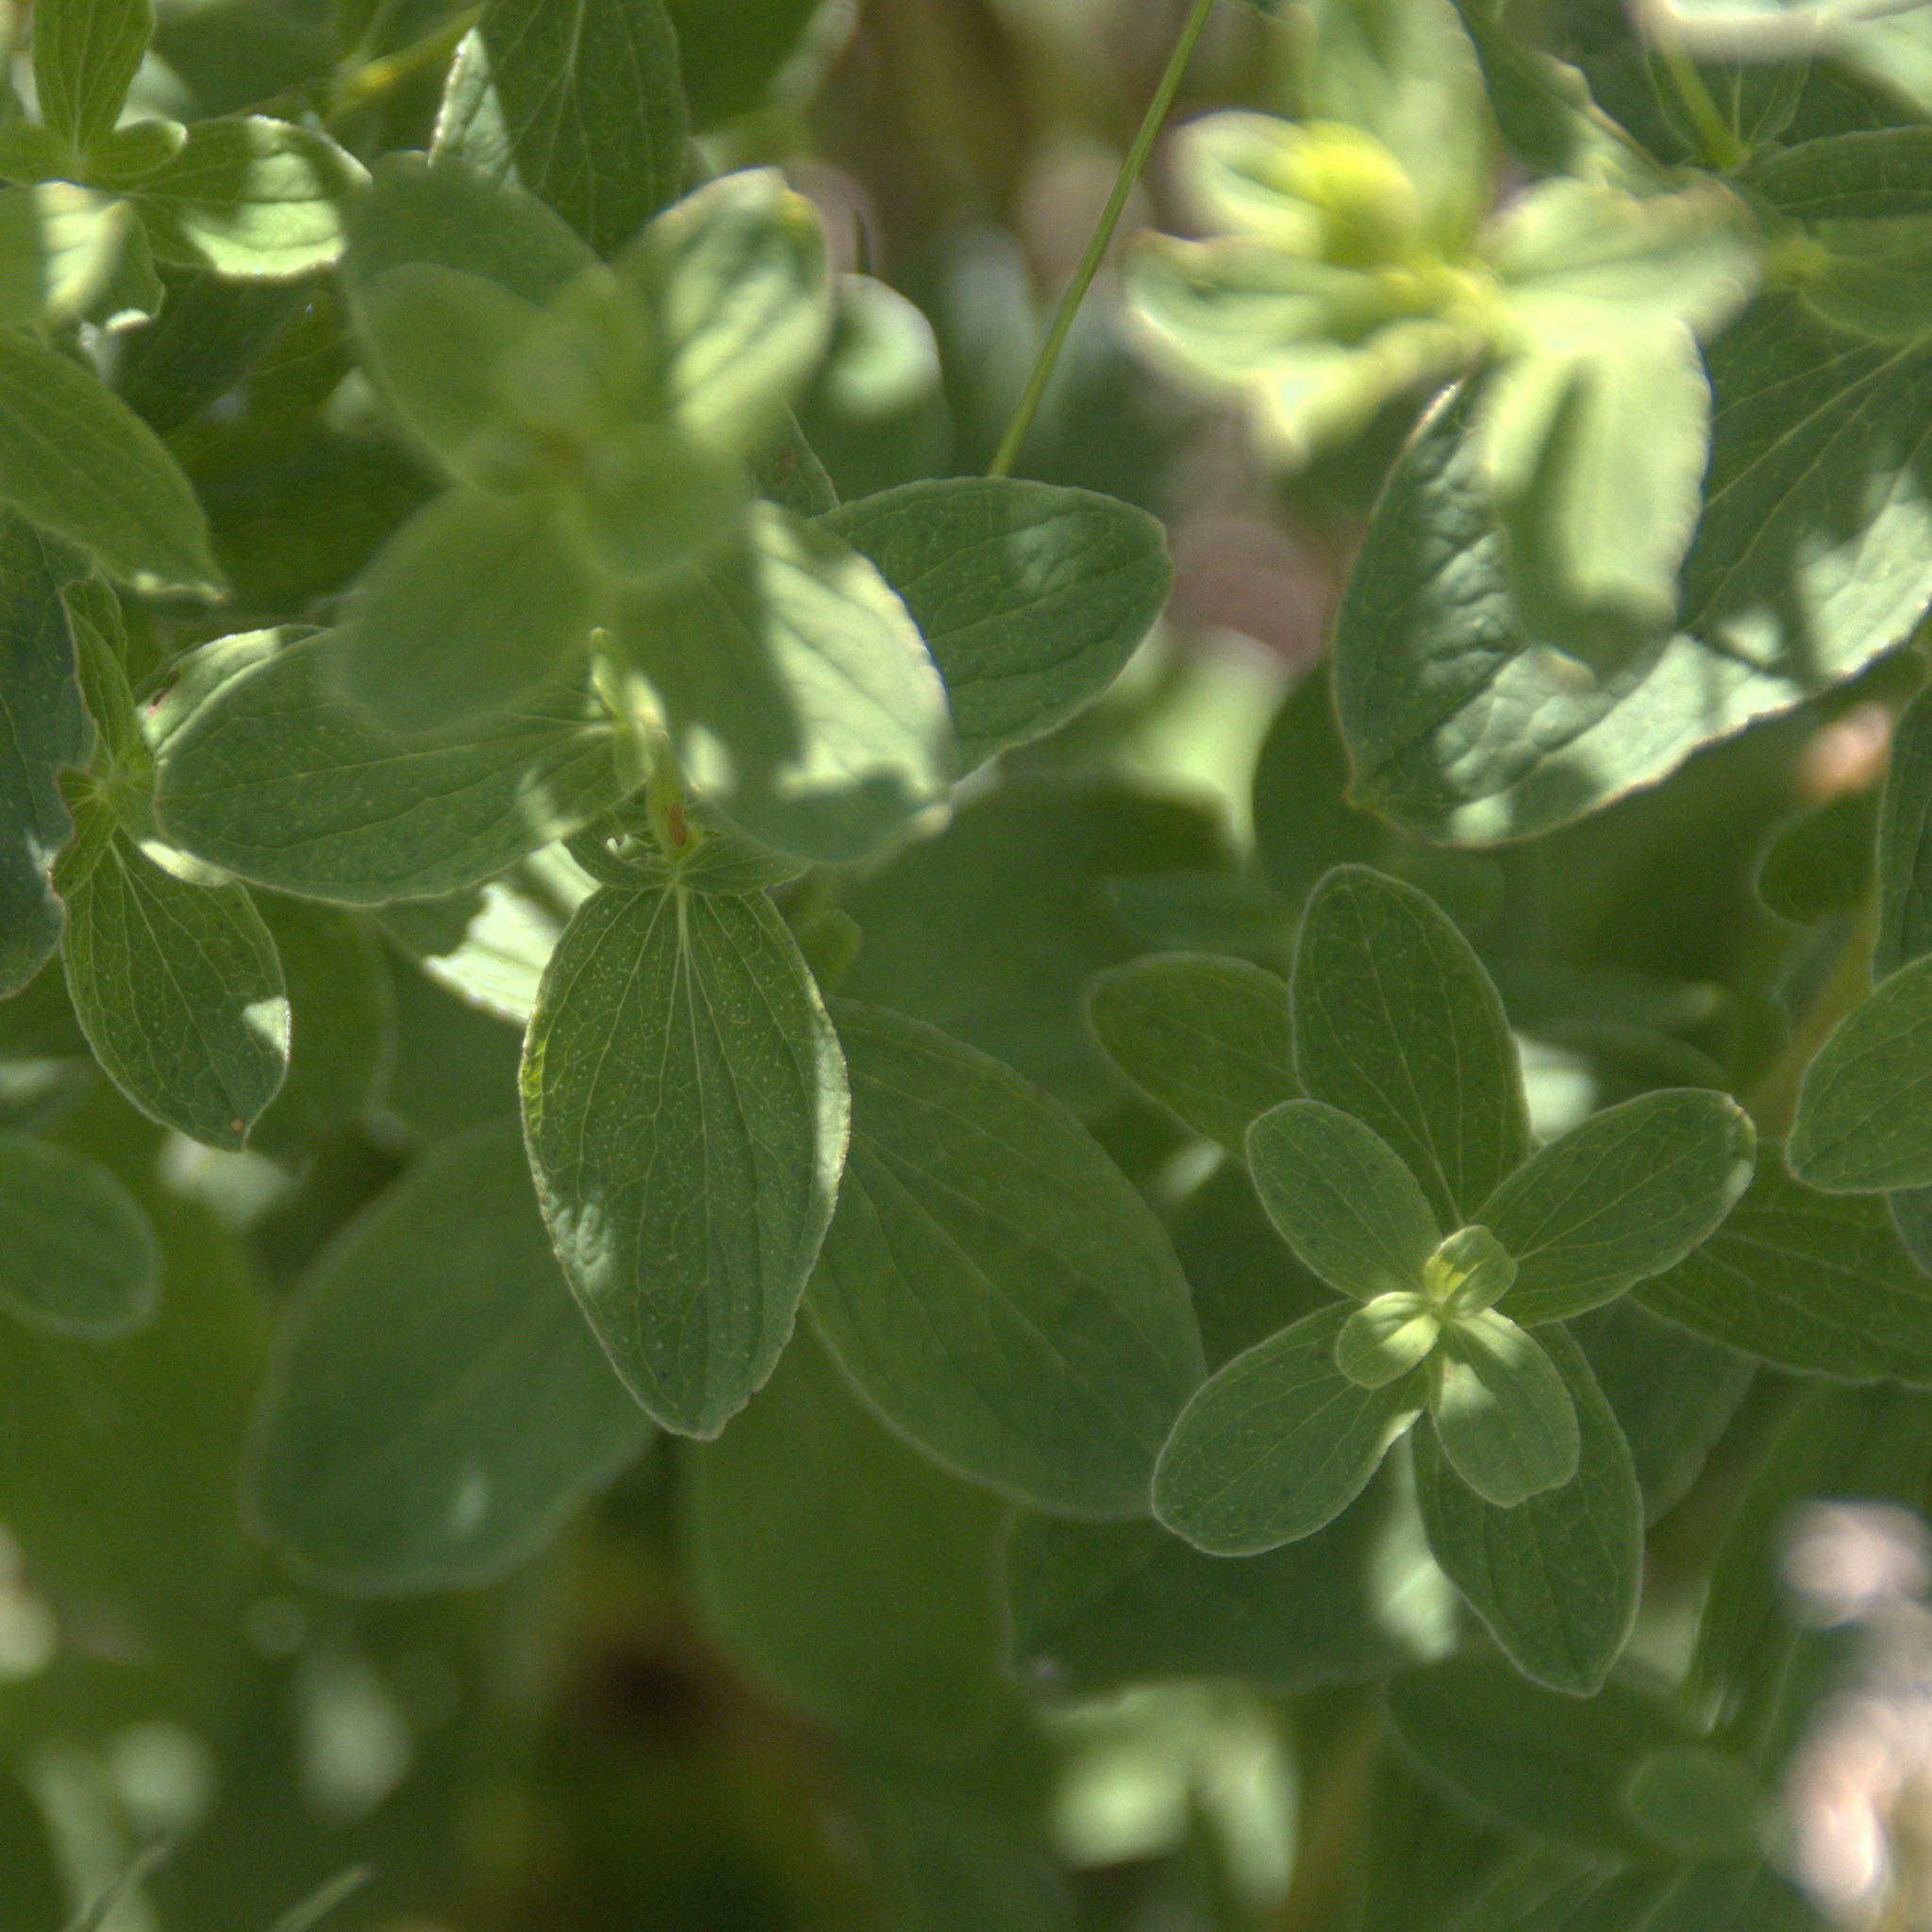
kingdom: Plantae
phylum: Tracheophyta
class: Magnoliopsida
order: Malpighiales
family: Hypericaceae
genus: Hypericum
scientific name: Hypericum maculatum
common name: Imperforate st. john's-wort
